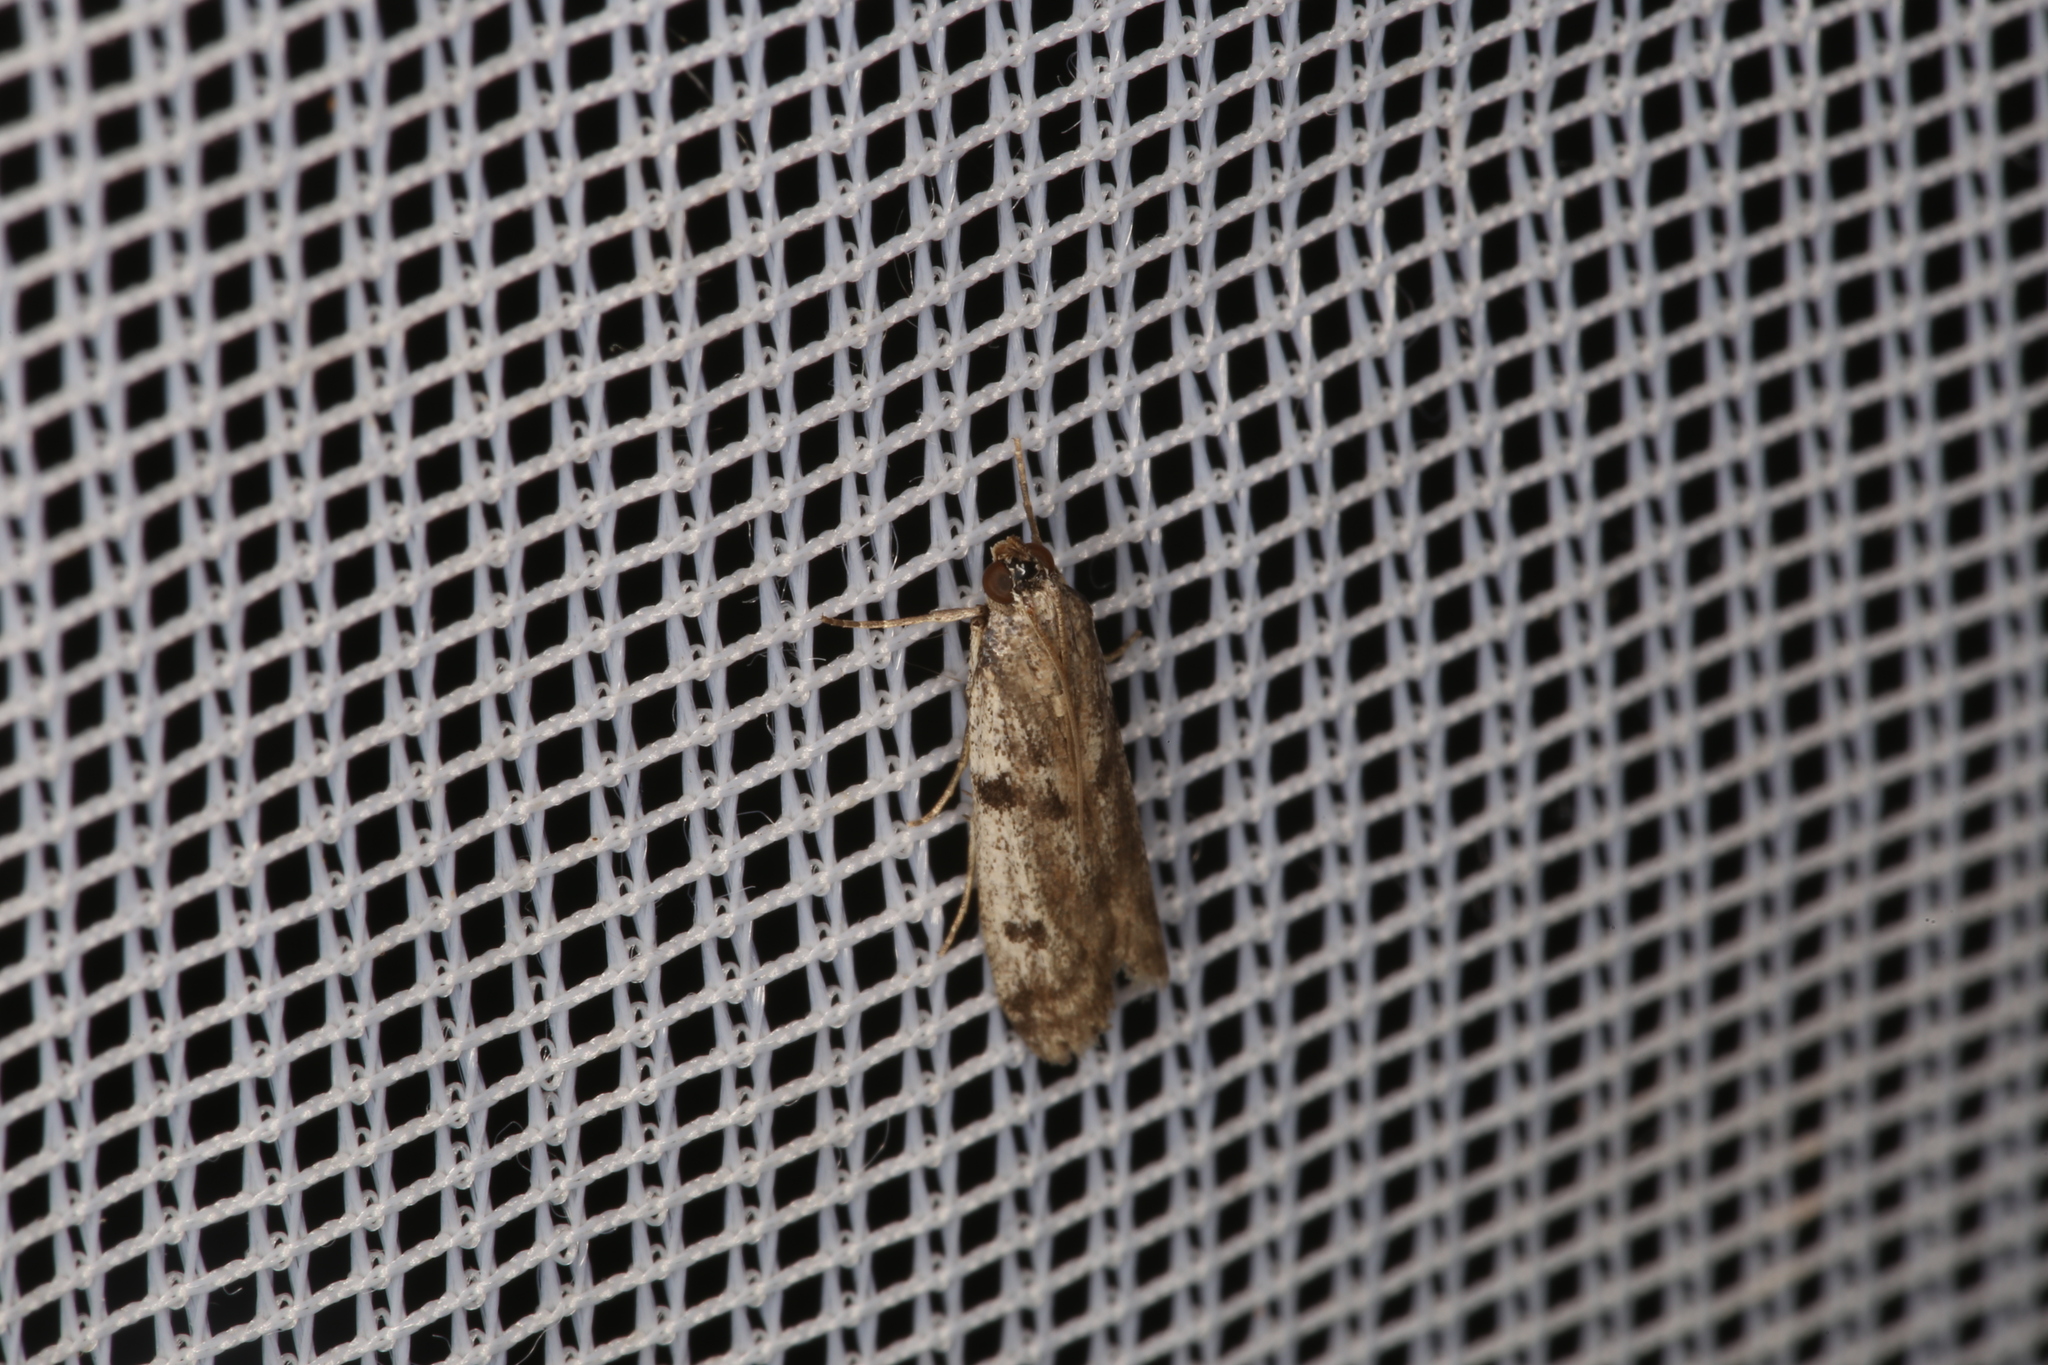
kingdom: Animalia
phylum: Arthropoda
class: Insecta
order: Lepidoptera
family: Pyralidae
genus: Phycitodes
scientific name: Phycitodes binaevella
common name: Ermine knot-horn
